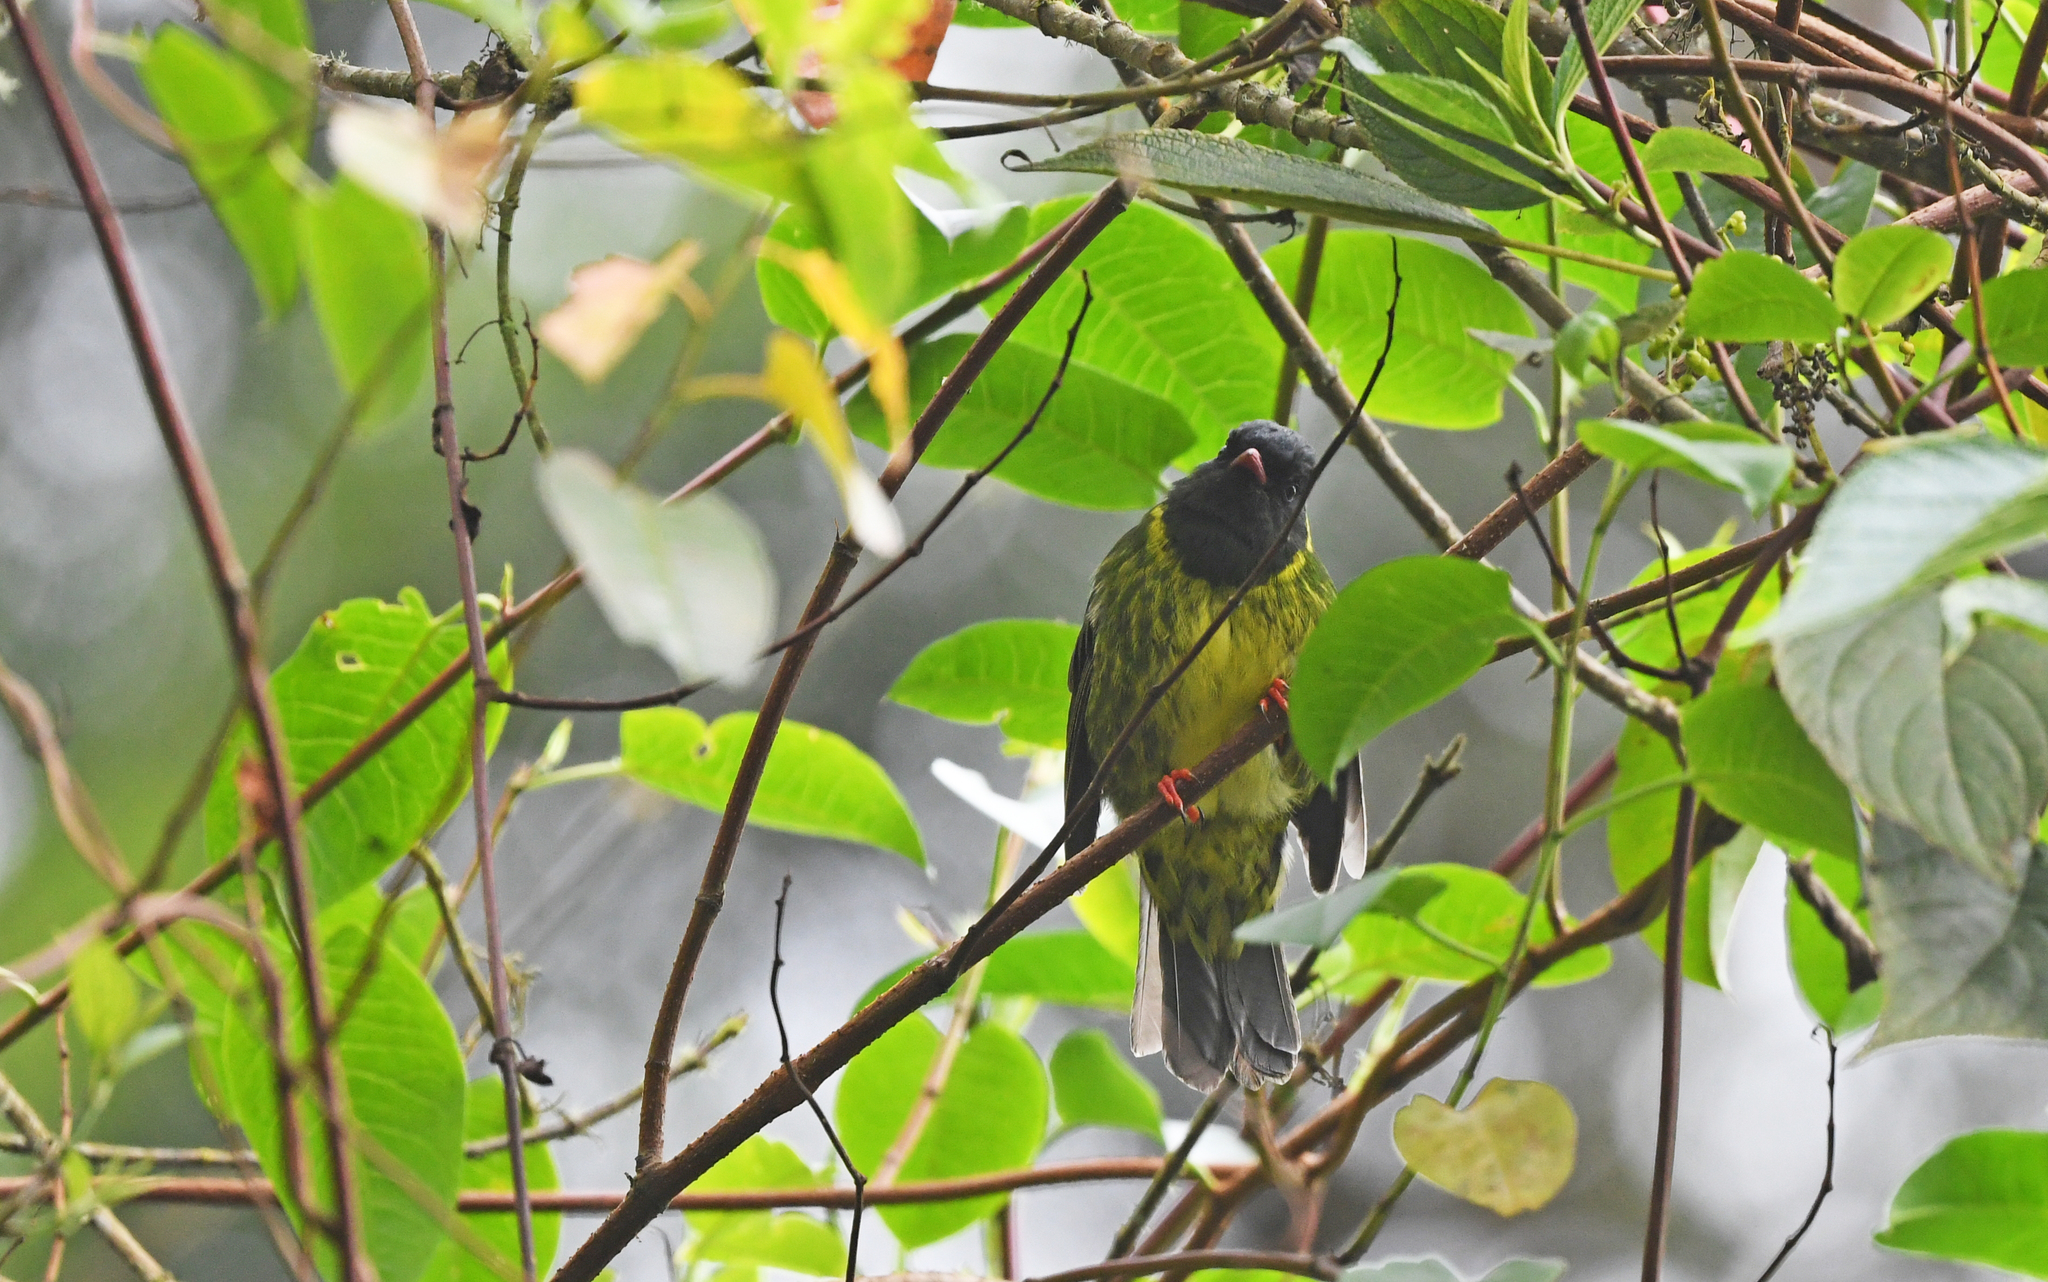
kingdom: Animalia
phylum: Chordata
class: Aves
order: Passeriformes
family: Cotingidae
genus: Pipreola
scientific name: Pipreola riefferii
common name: Green-and-black fruiteater
